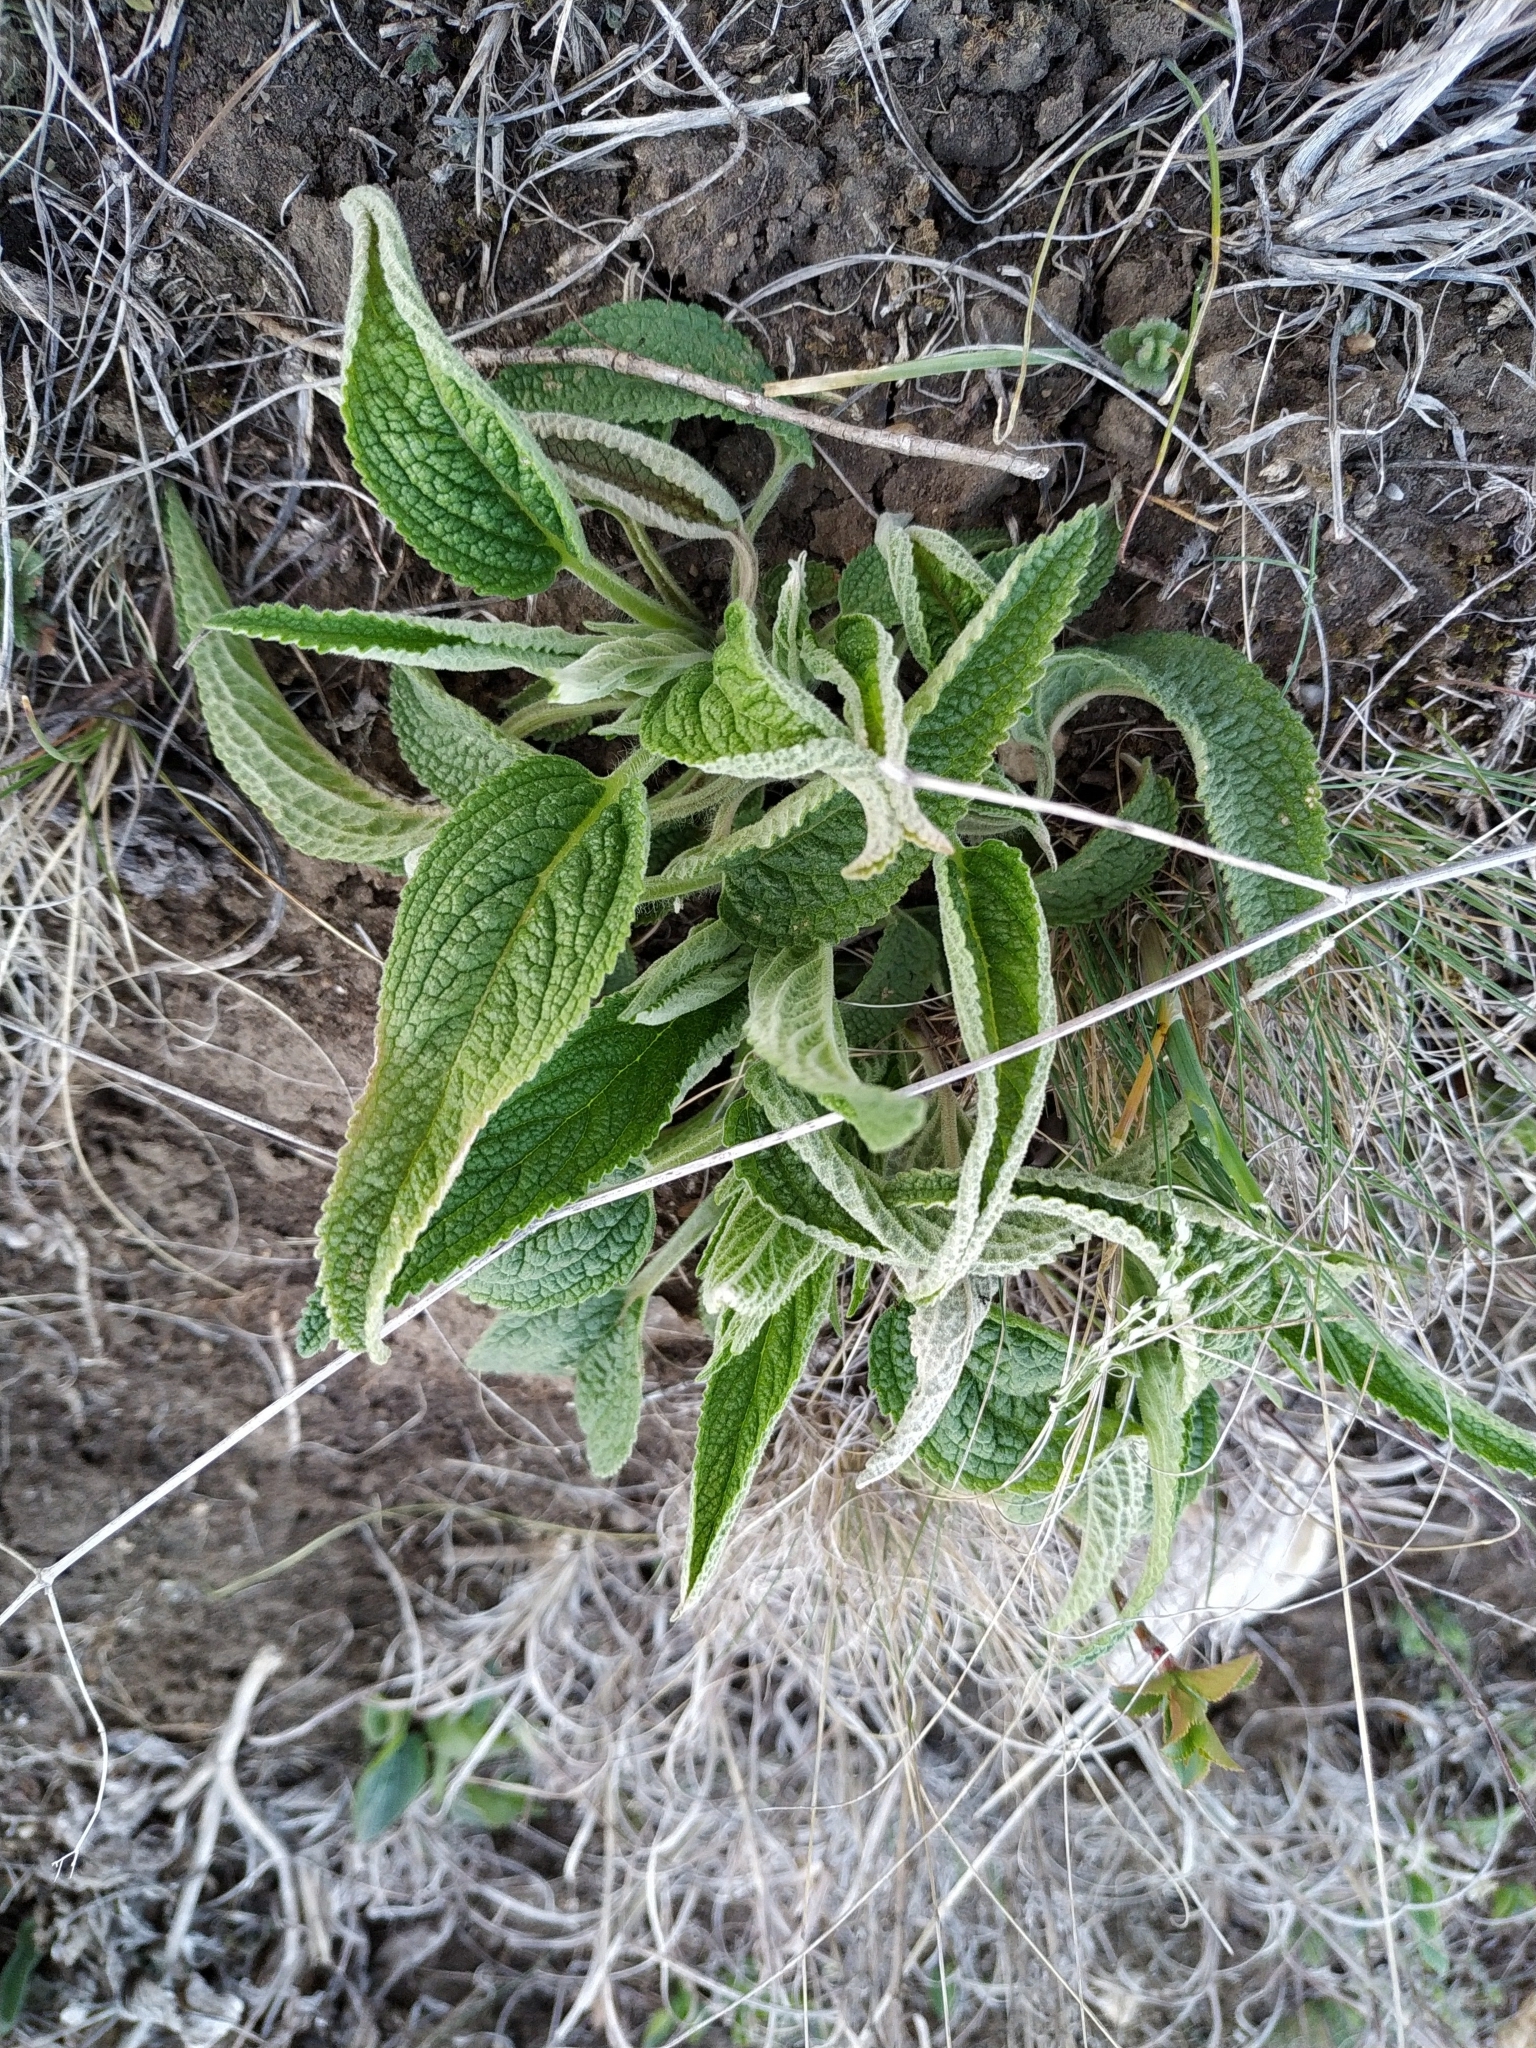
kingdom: Plantae
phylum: Tracheophyta
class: Magnoliopsida
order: Lamiales
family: Lamiaceae
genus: Phlomis
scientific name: Phlomis herba-venti
